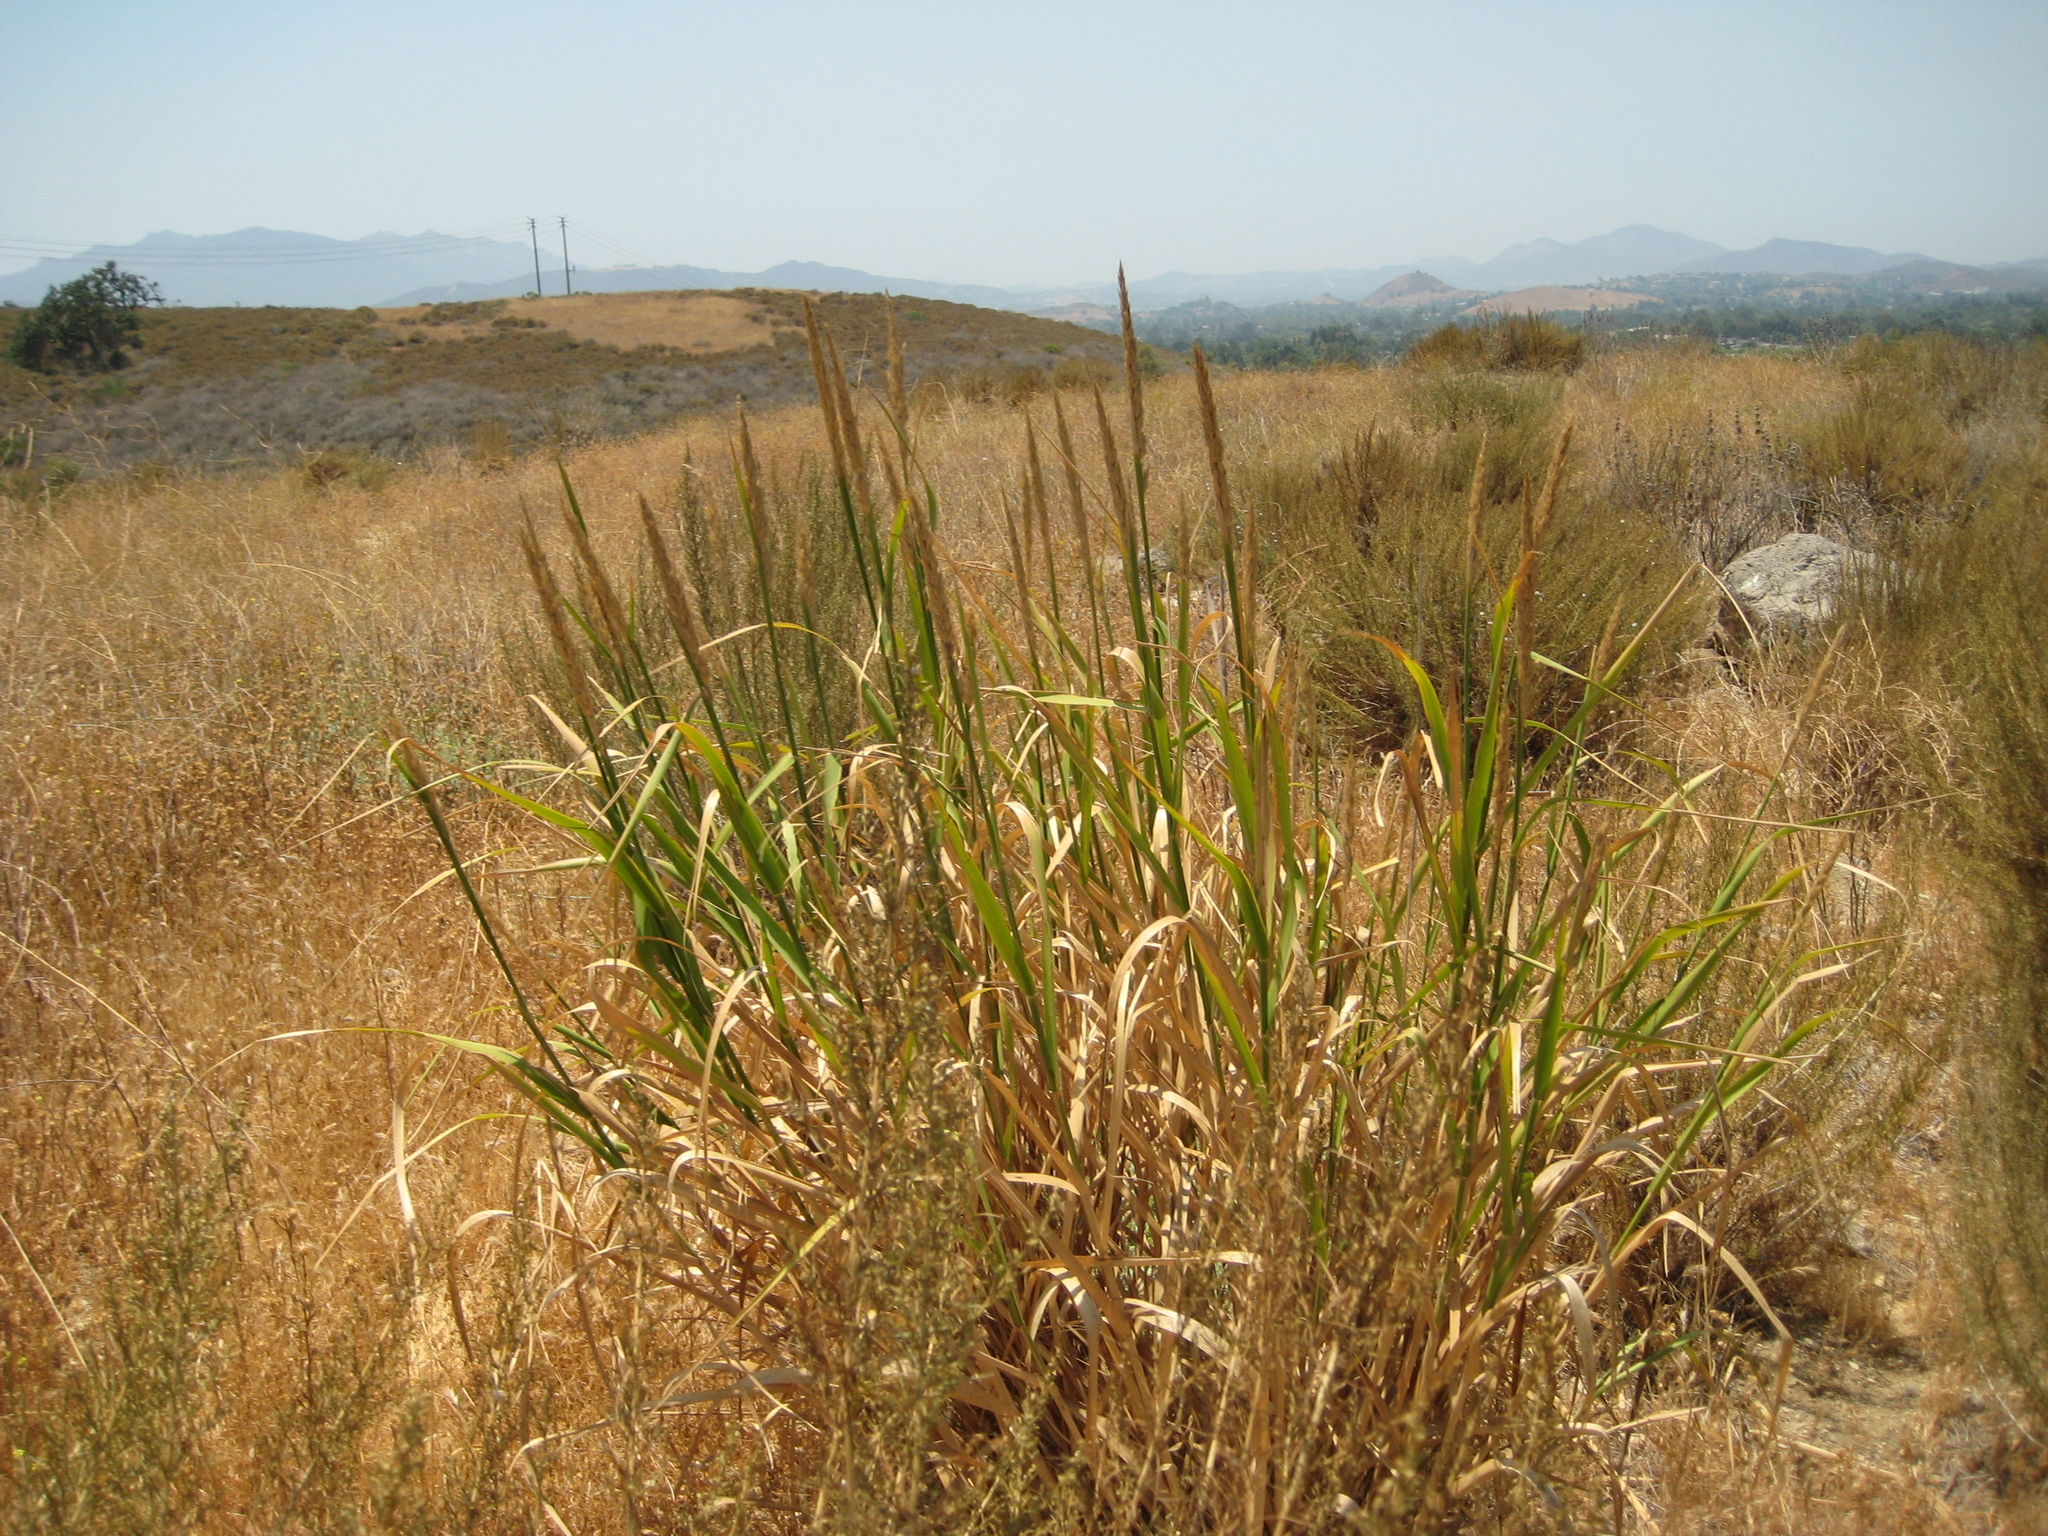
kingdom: Plantae
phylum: Tracheophyta
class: Magnoliopsida
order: Fagales
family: Fagaceae
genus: Quercus
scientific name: Quercus lobata
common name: Valley oak
